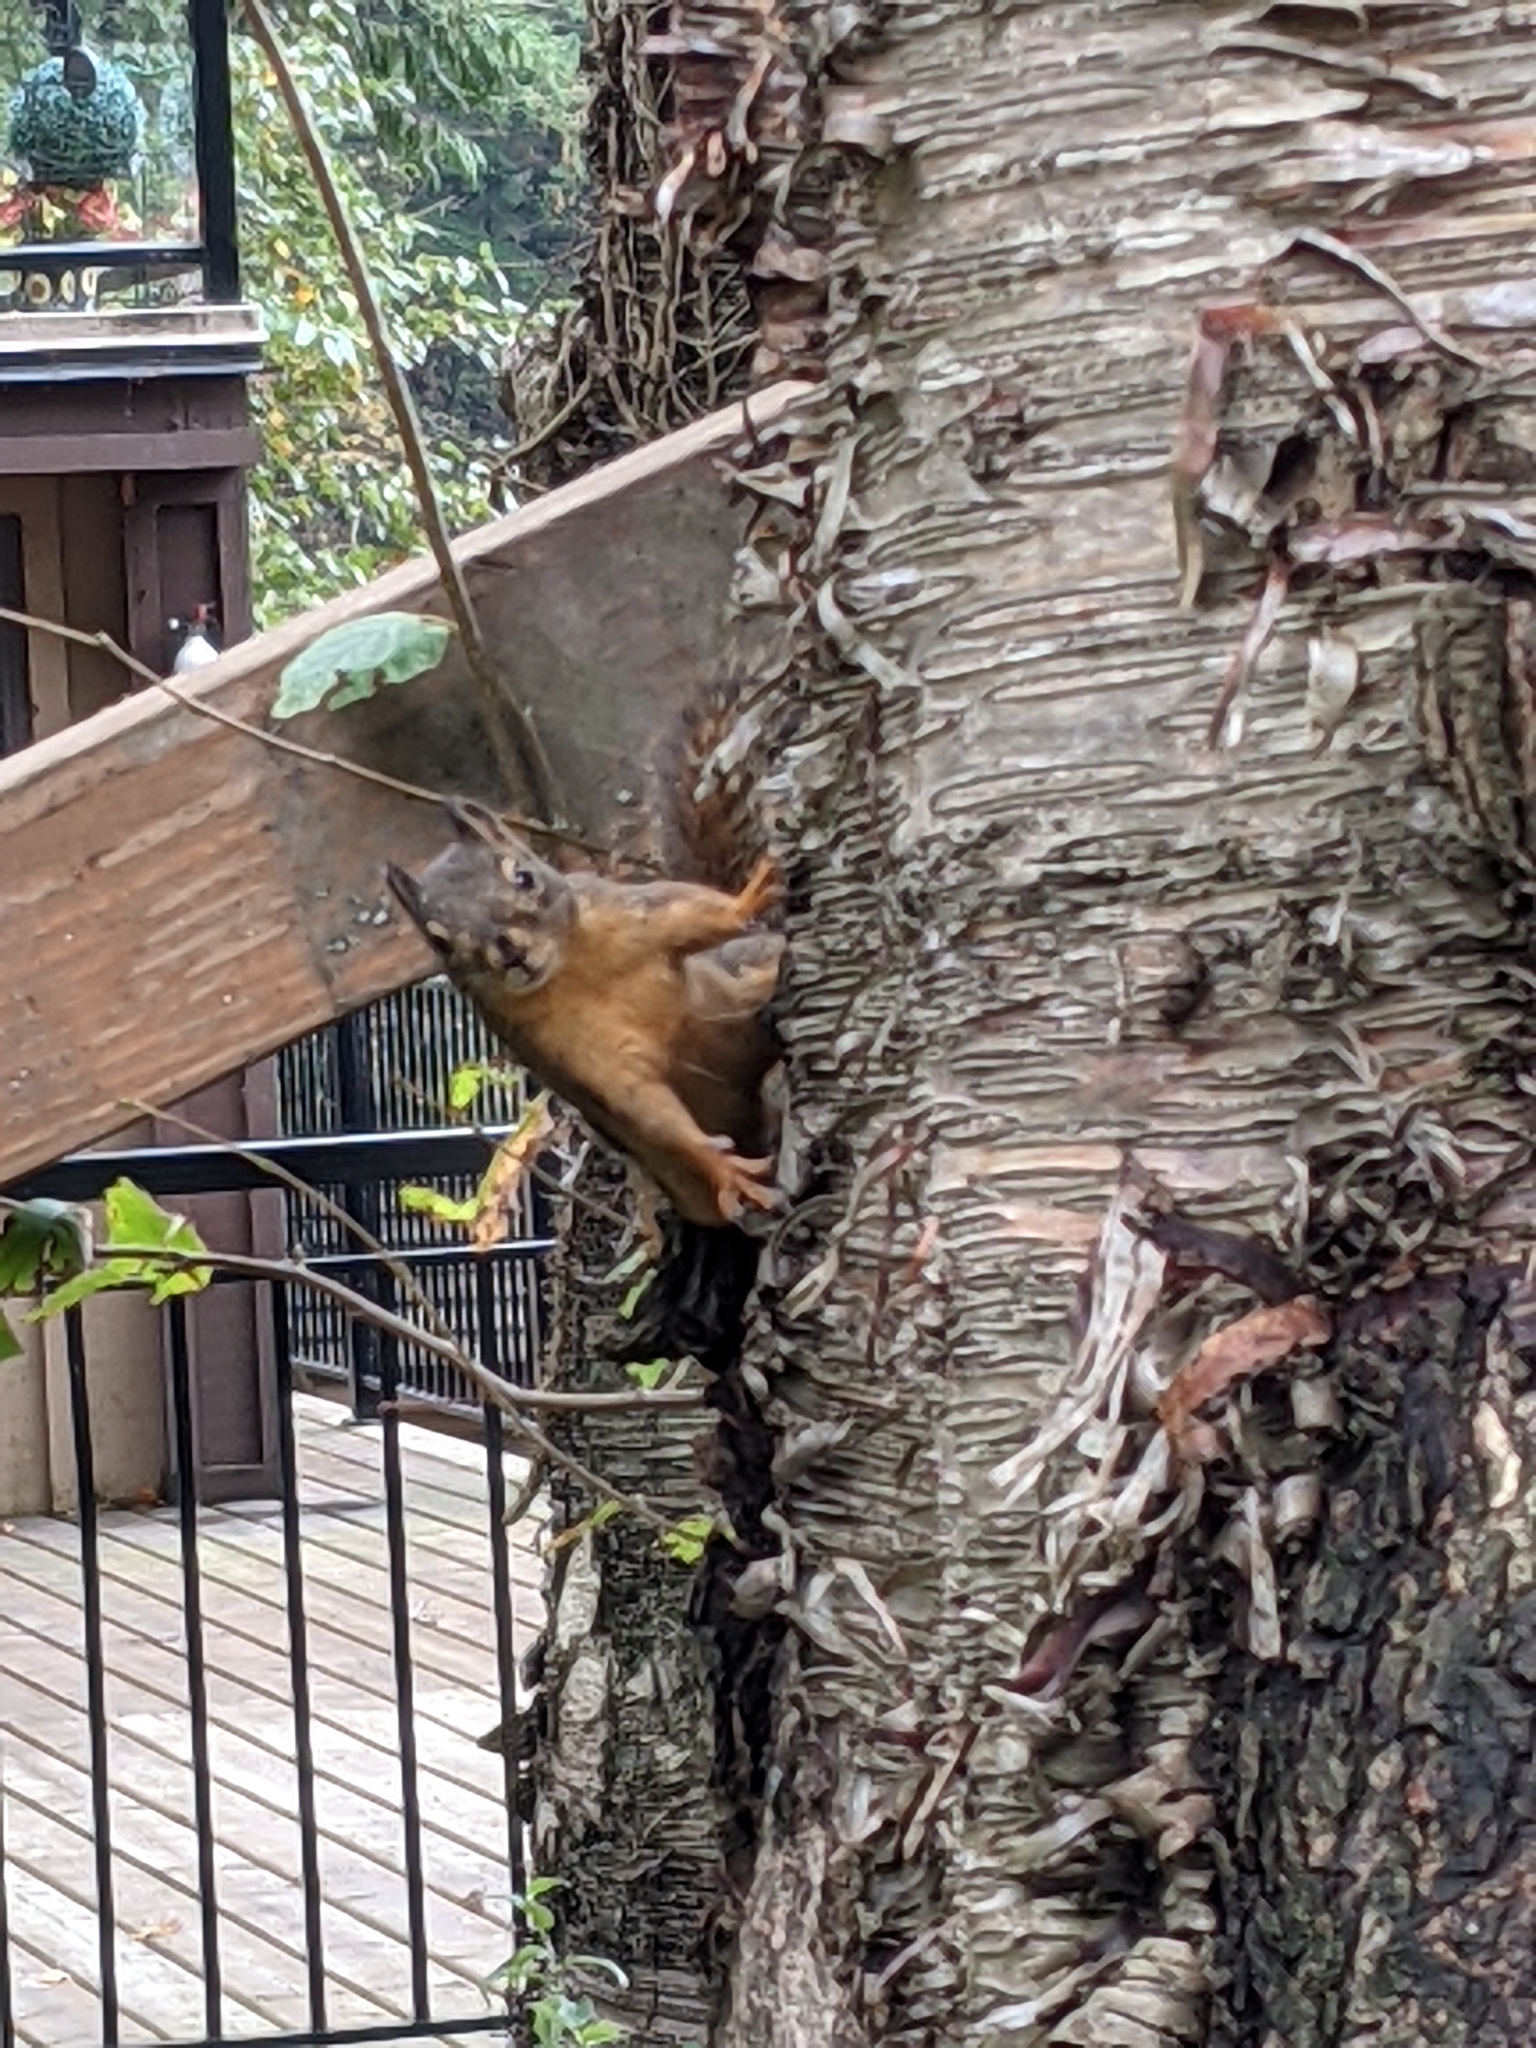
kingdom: Animalia
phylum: Chordata
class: Mammalia
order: Rodentia
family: Sciuridae
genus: Tamiasciurus
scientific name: Tamiasciurus douglasii
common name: Douglas's squirrel
